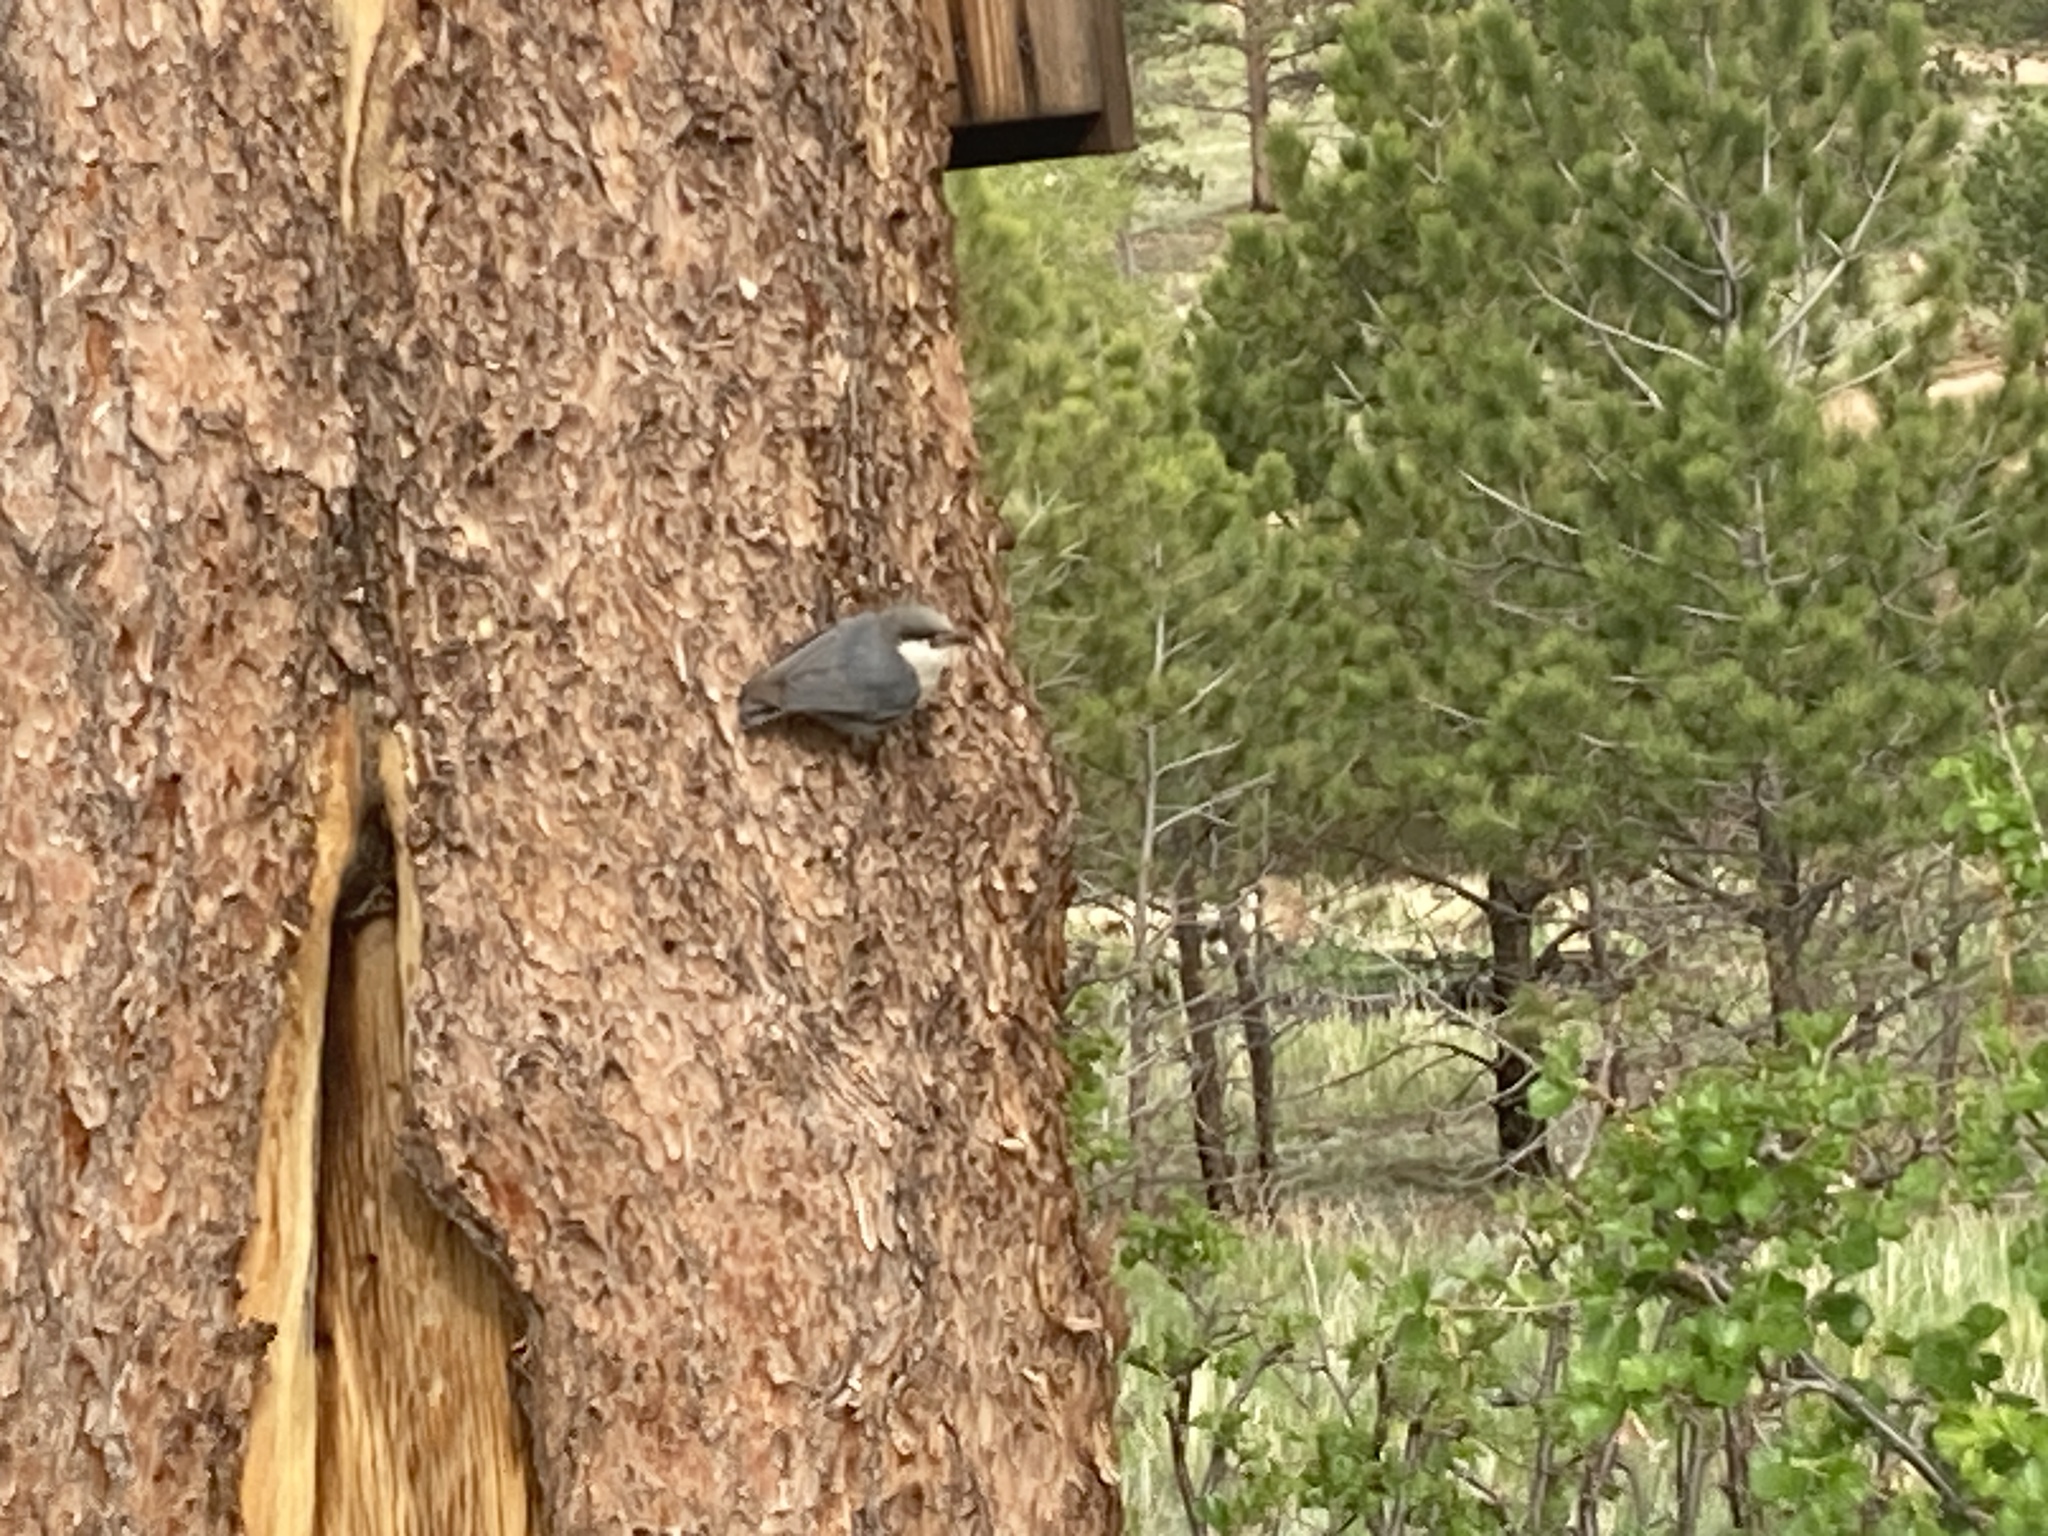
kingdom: Animalia
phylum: Chordata
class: Aves
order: Passeriformes
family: Sittidae
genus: Sitta
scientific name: Sitta pygmaea
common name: Pygmy nuthatch
